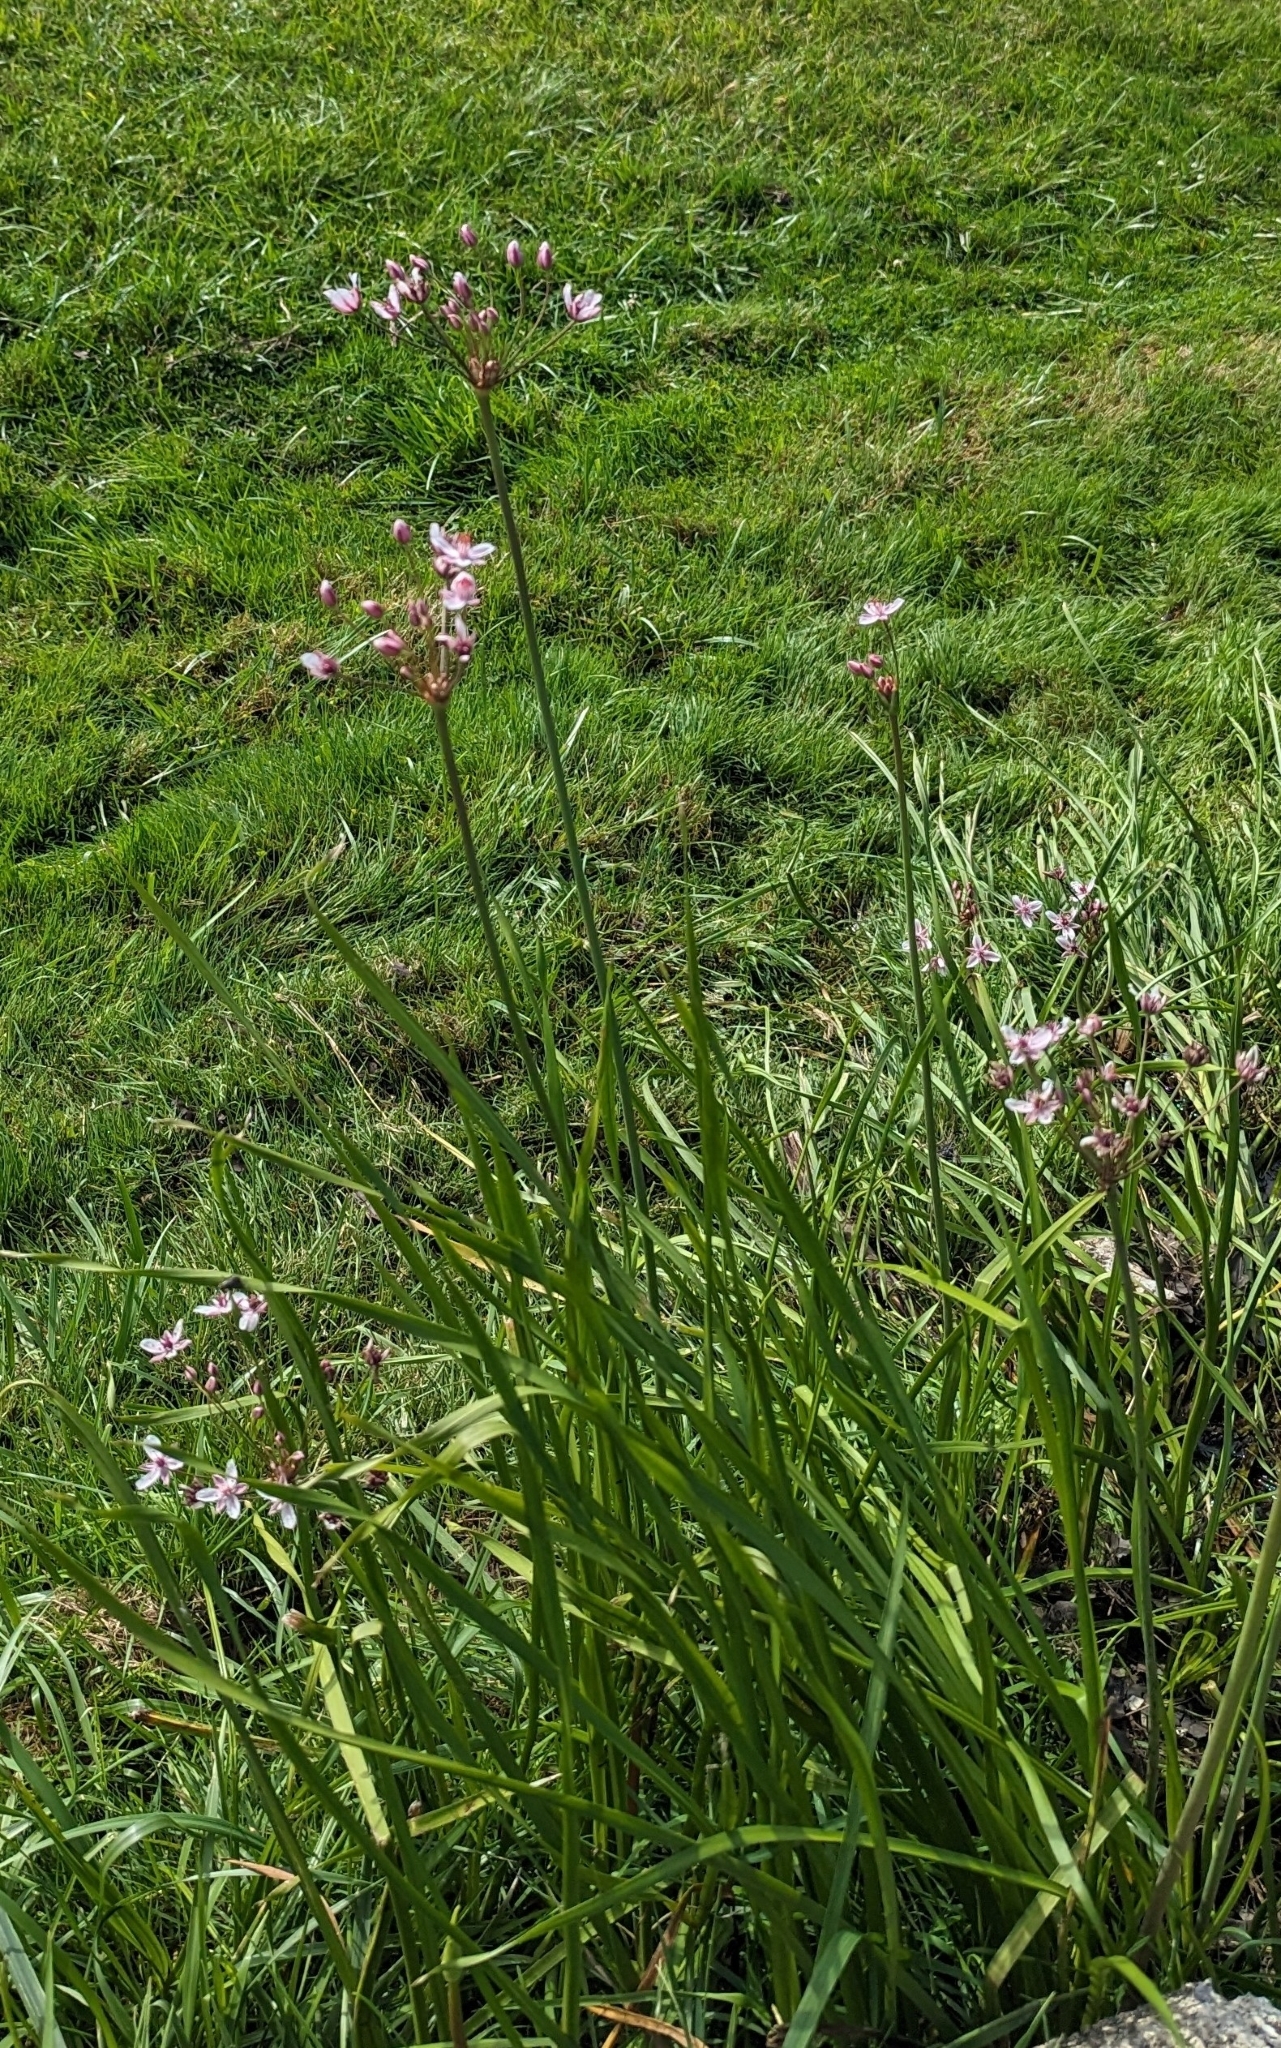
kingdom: Plantae
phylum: Tracheophyta
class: Liliopsida
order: Alismatales
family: Butomaceae
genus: Butomus
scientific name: Butomus umbellatus
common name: Flowering-rush
